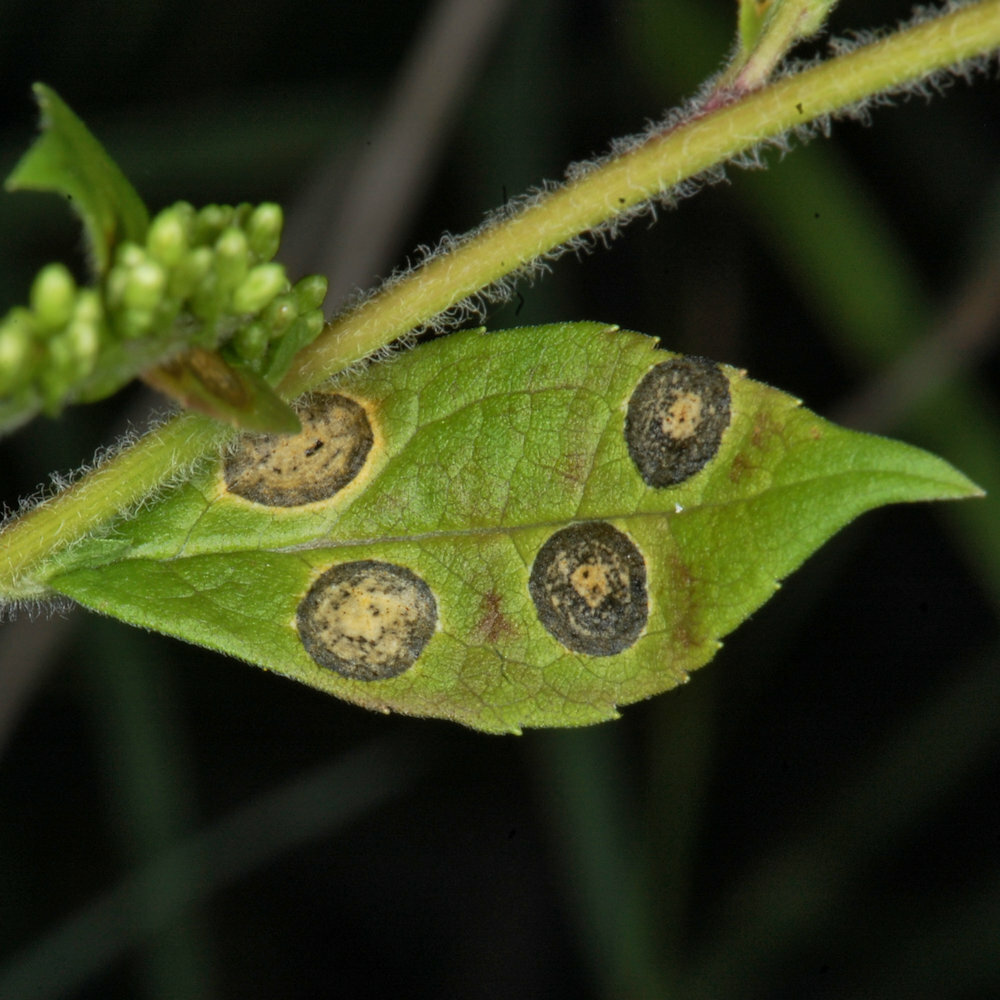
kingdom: Animalia
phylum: Arthropoda
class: Insecta
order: Diptera
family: Cecidomyiidae
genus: Asteromyia
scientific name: Asteromyia carbonifera
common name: Carbonifera goldenrod gall midge
